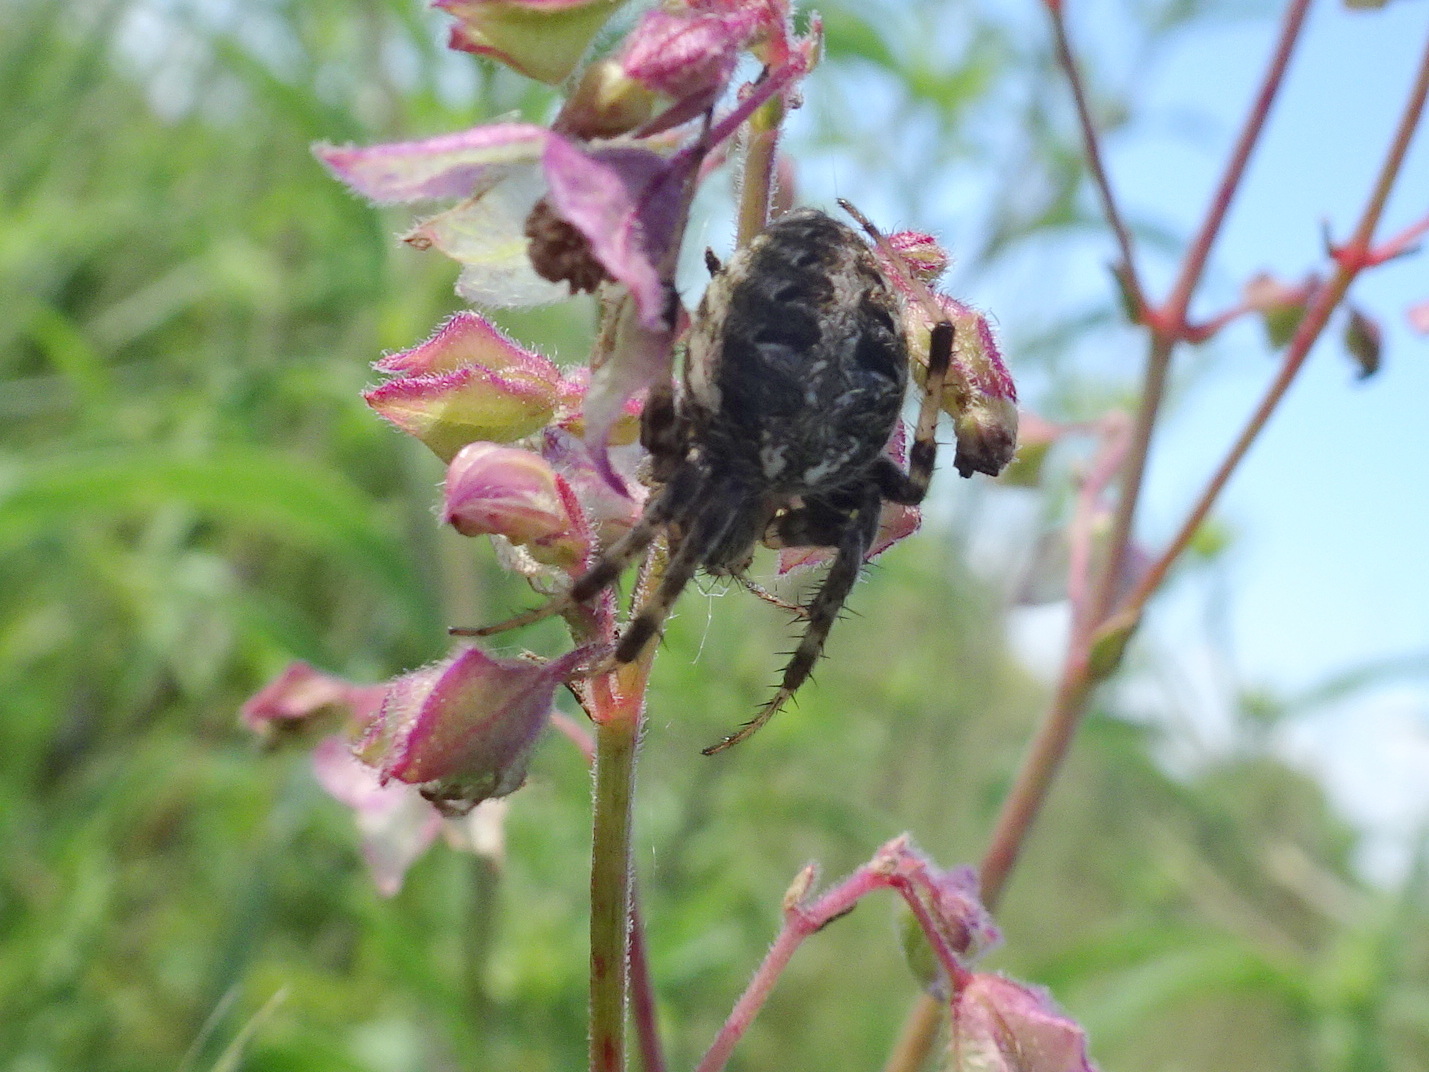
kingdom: Animalia
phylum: Arthropoda
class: Arachnida
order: Araneae
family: Araneidae
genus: Neoscona
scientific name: Neoscona arabesca
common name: Orb weavers
